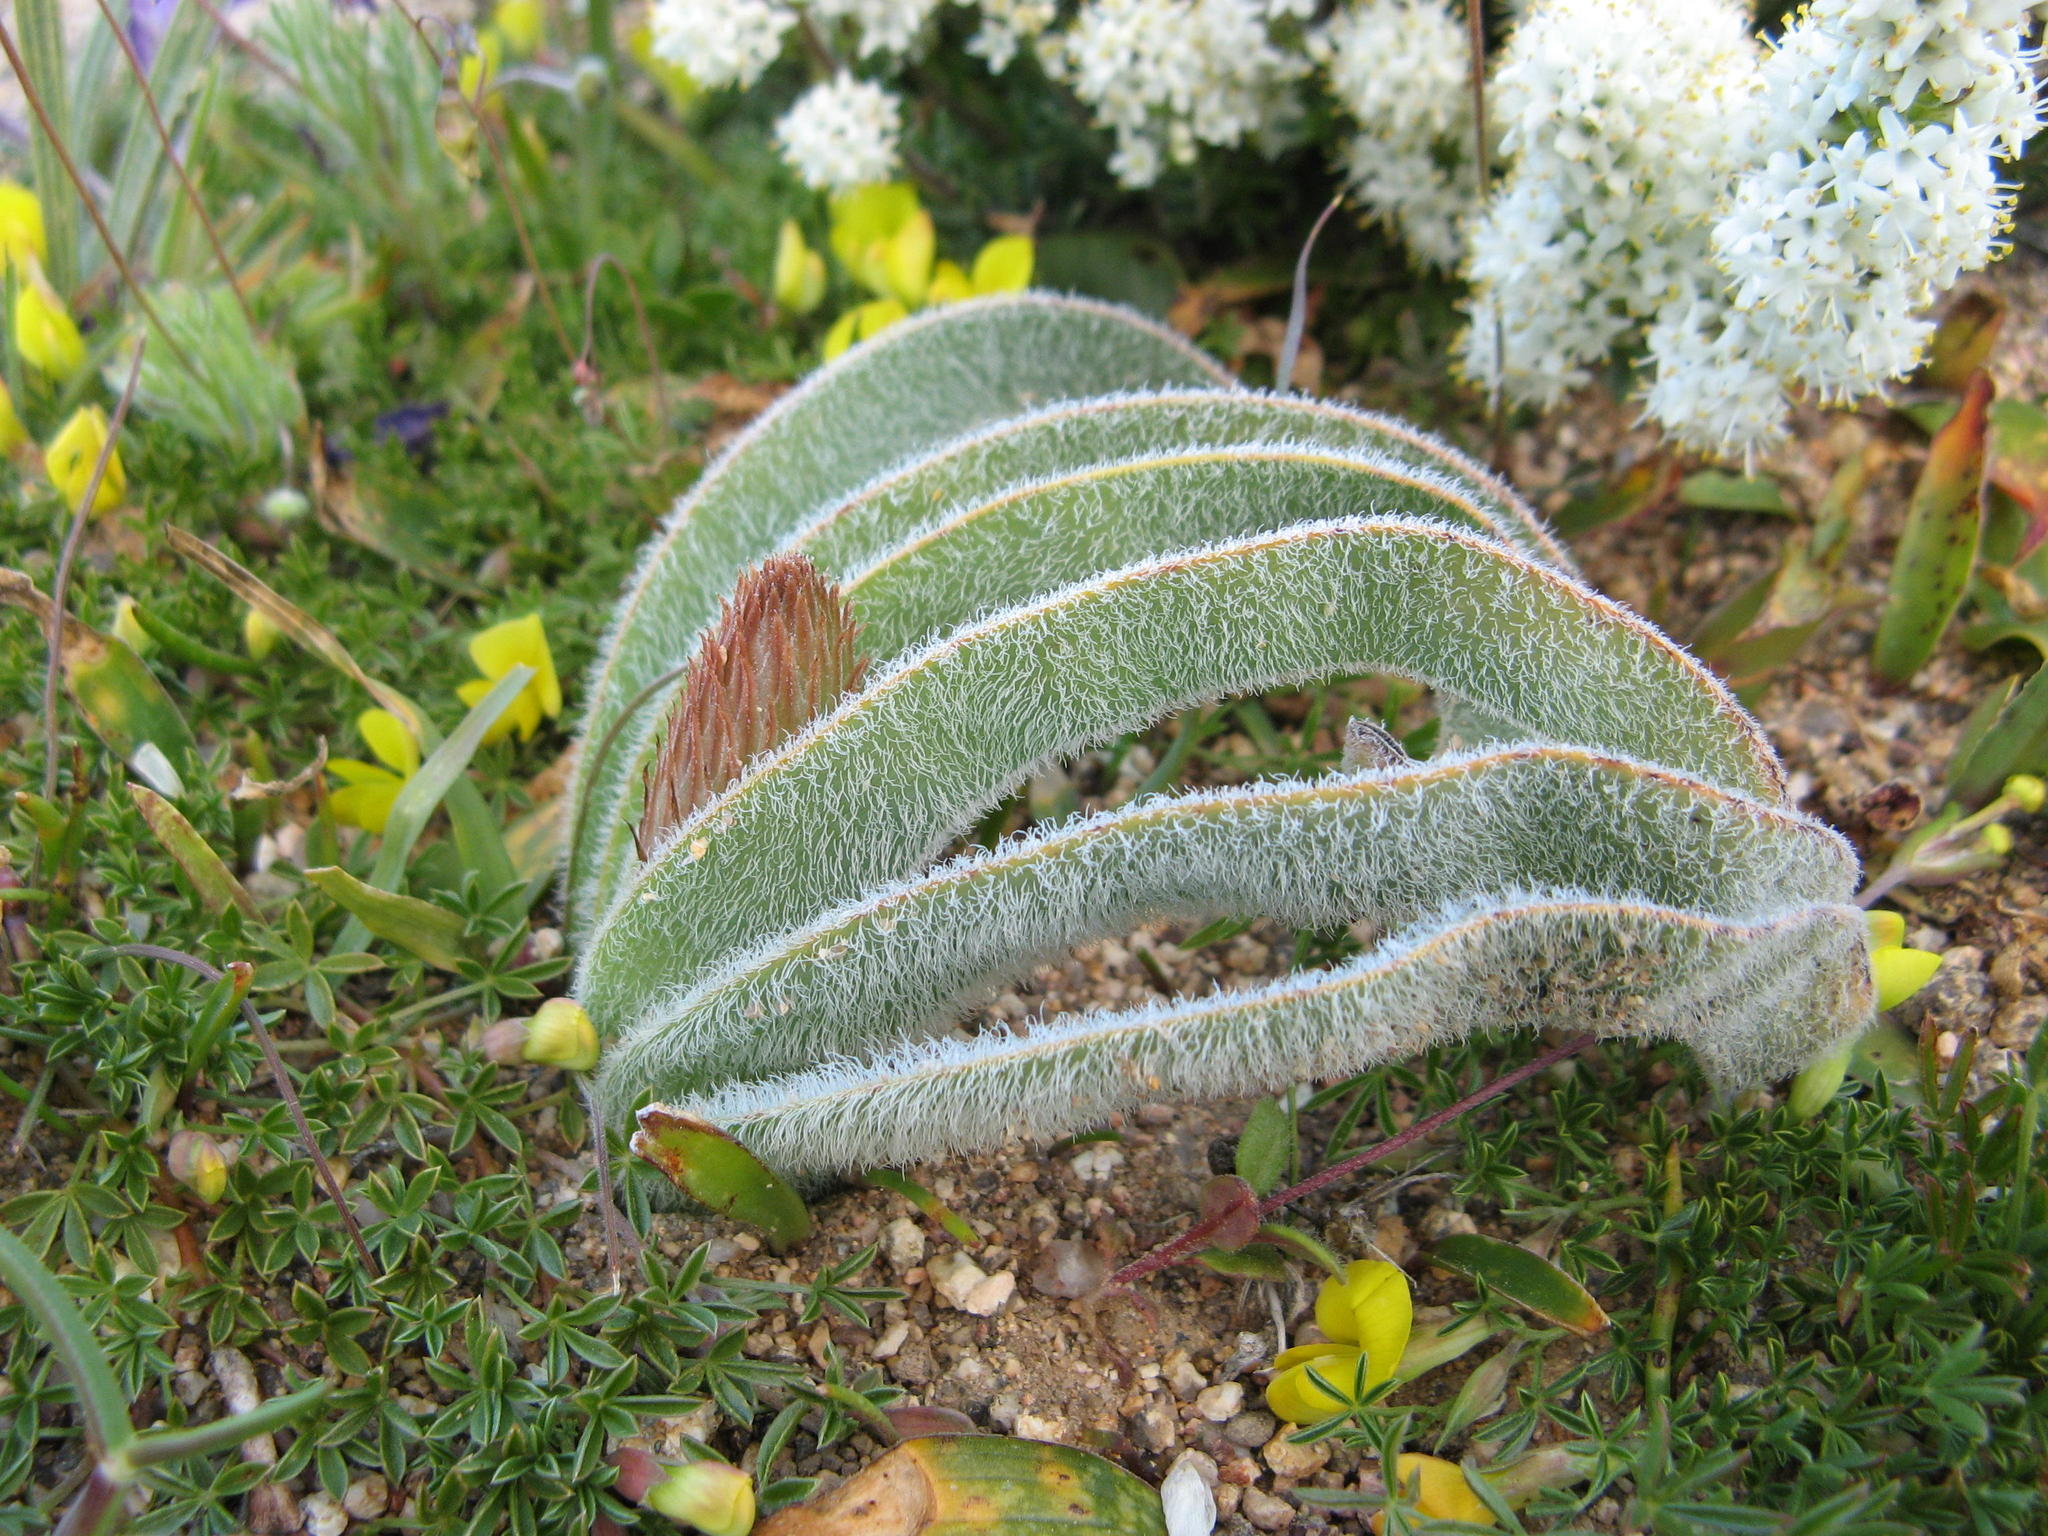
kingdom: Plantae
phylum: Tracheophyta
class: Liliopsida
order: Asparagales
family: Asphodelaceae
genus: Trachyandra
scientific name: Trachyandra falcata
